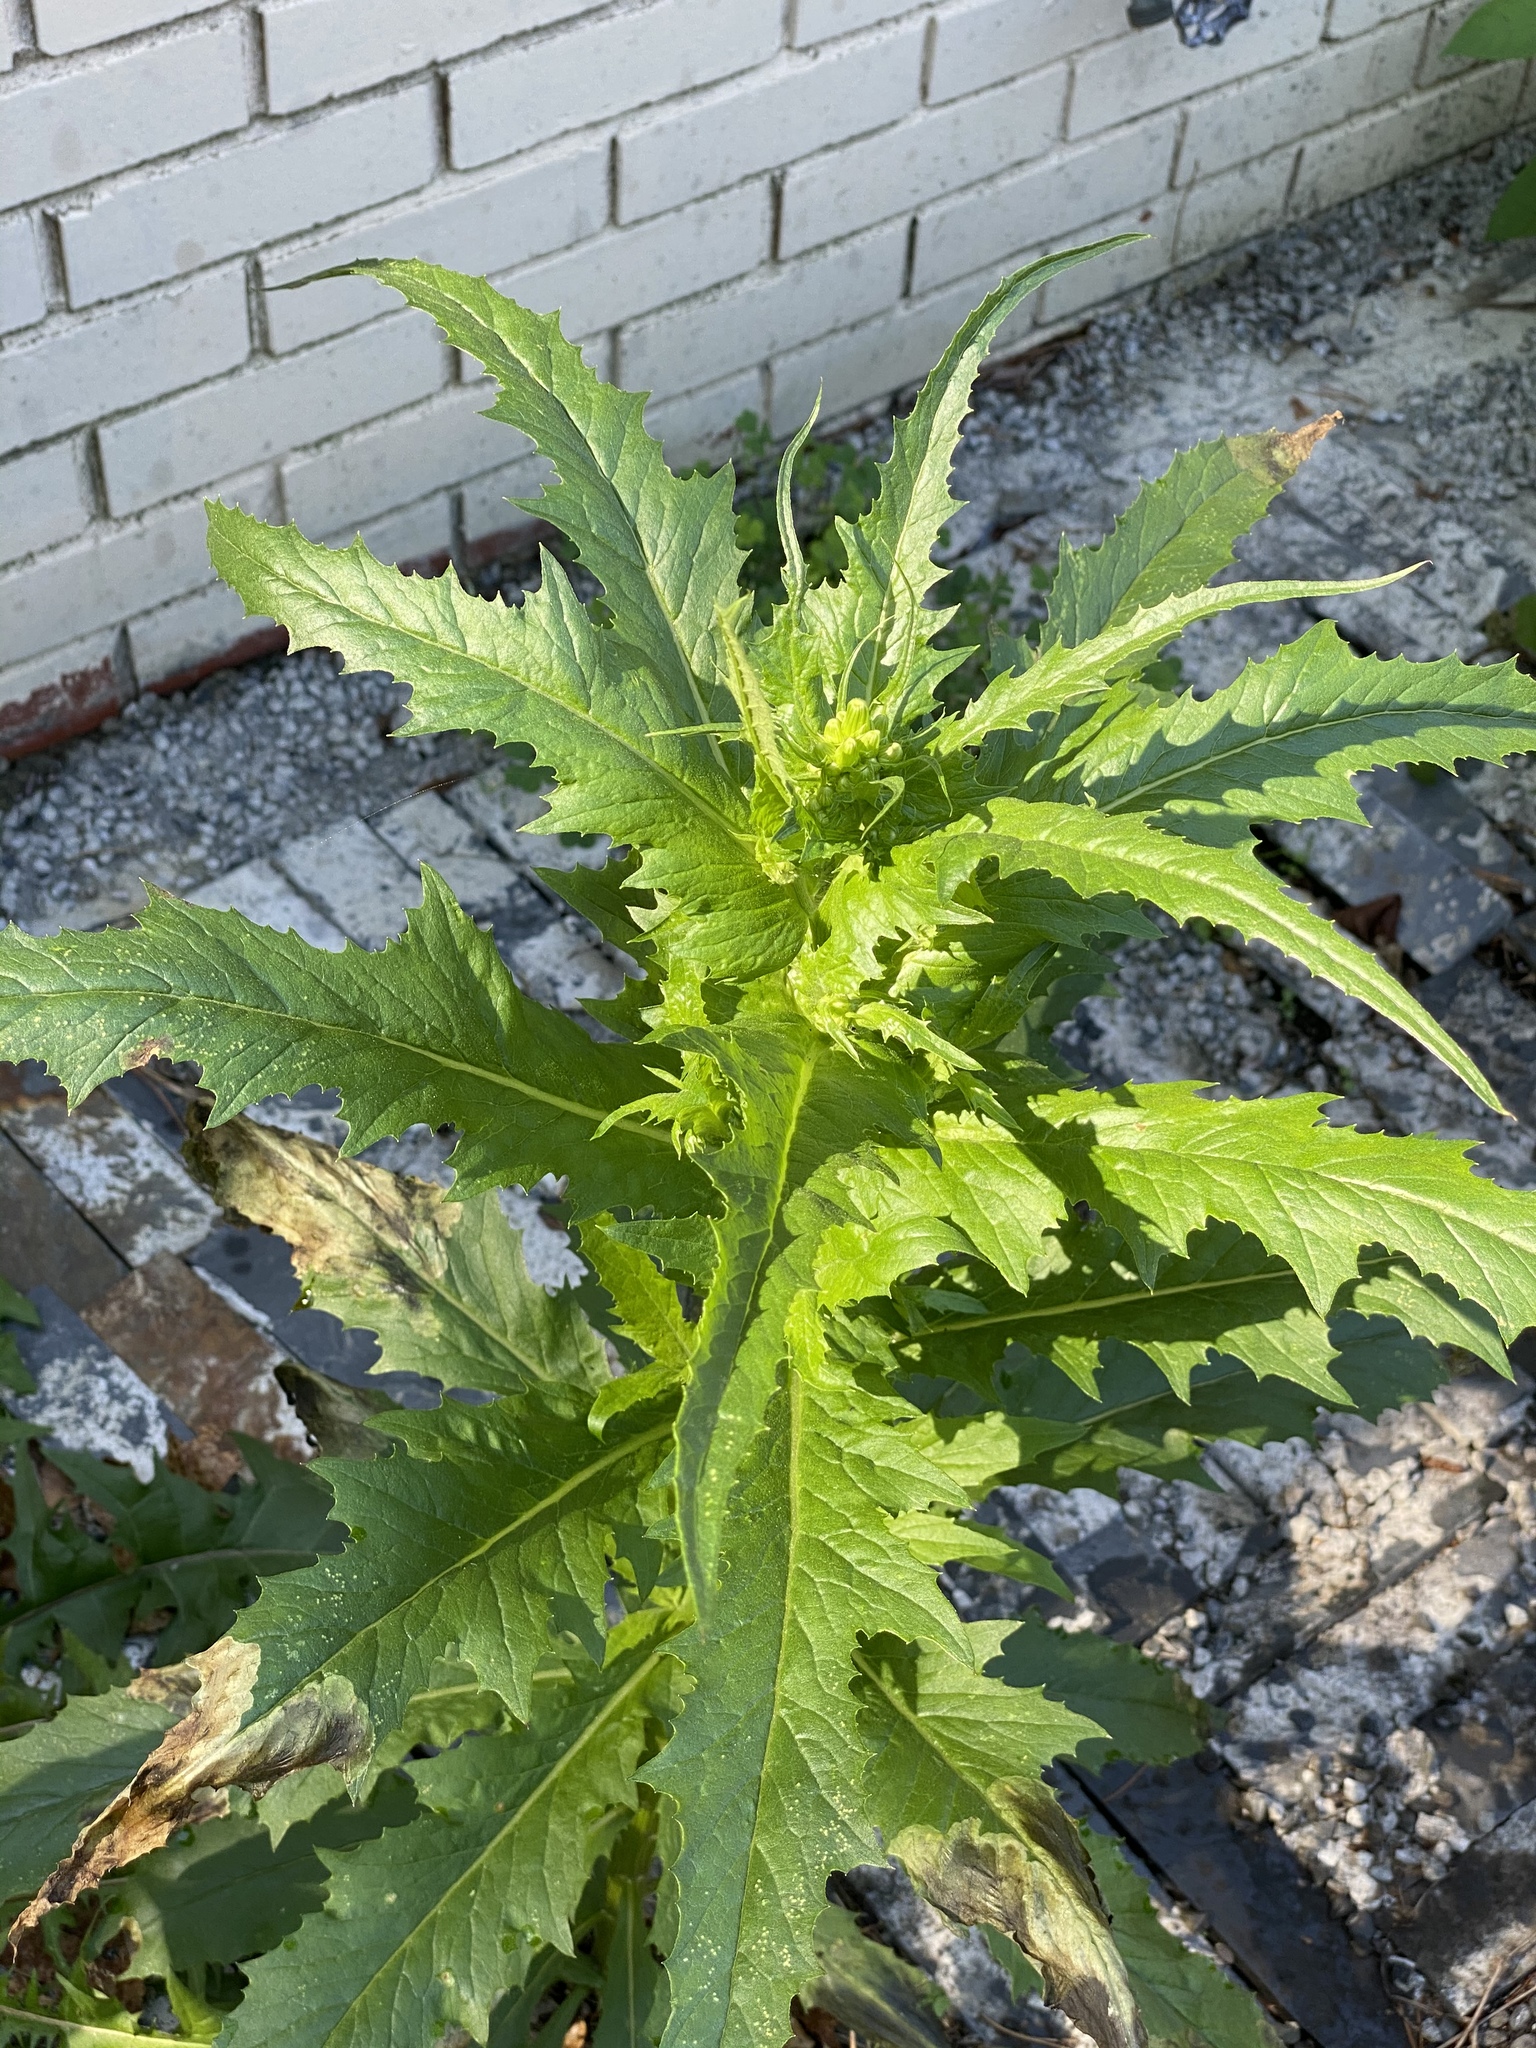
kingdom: Plantae
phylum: Tracheophyta
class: Magnoliopsida
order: Asterales
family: Asteraceae
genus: Erechtites
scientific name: Erechtites hieraciifolius
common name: American burnweed
